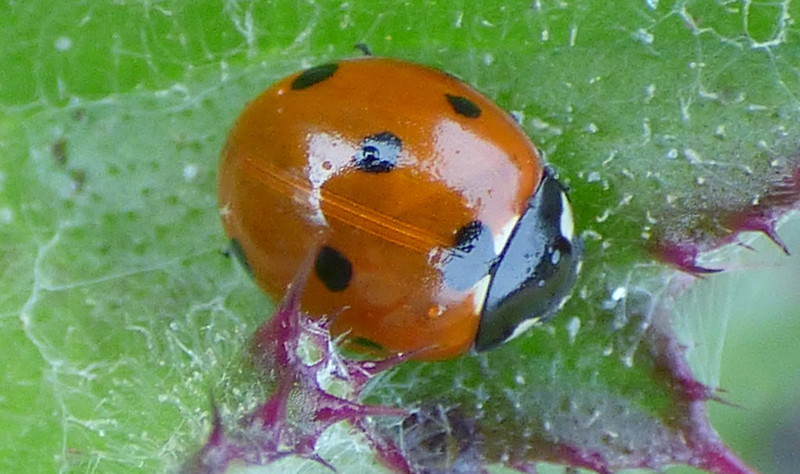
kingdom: Animalia
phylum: Arthropoda
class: Insecta
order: Coleoptera
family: Coccinellidae
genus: Coccinella
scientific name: Coccinella septempunctata
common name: Sevenspotted lady beetle
